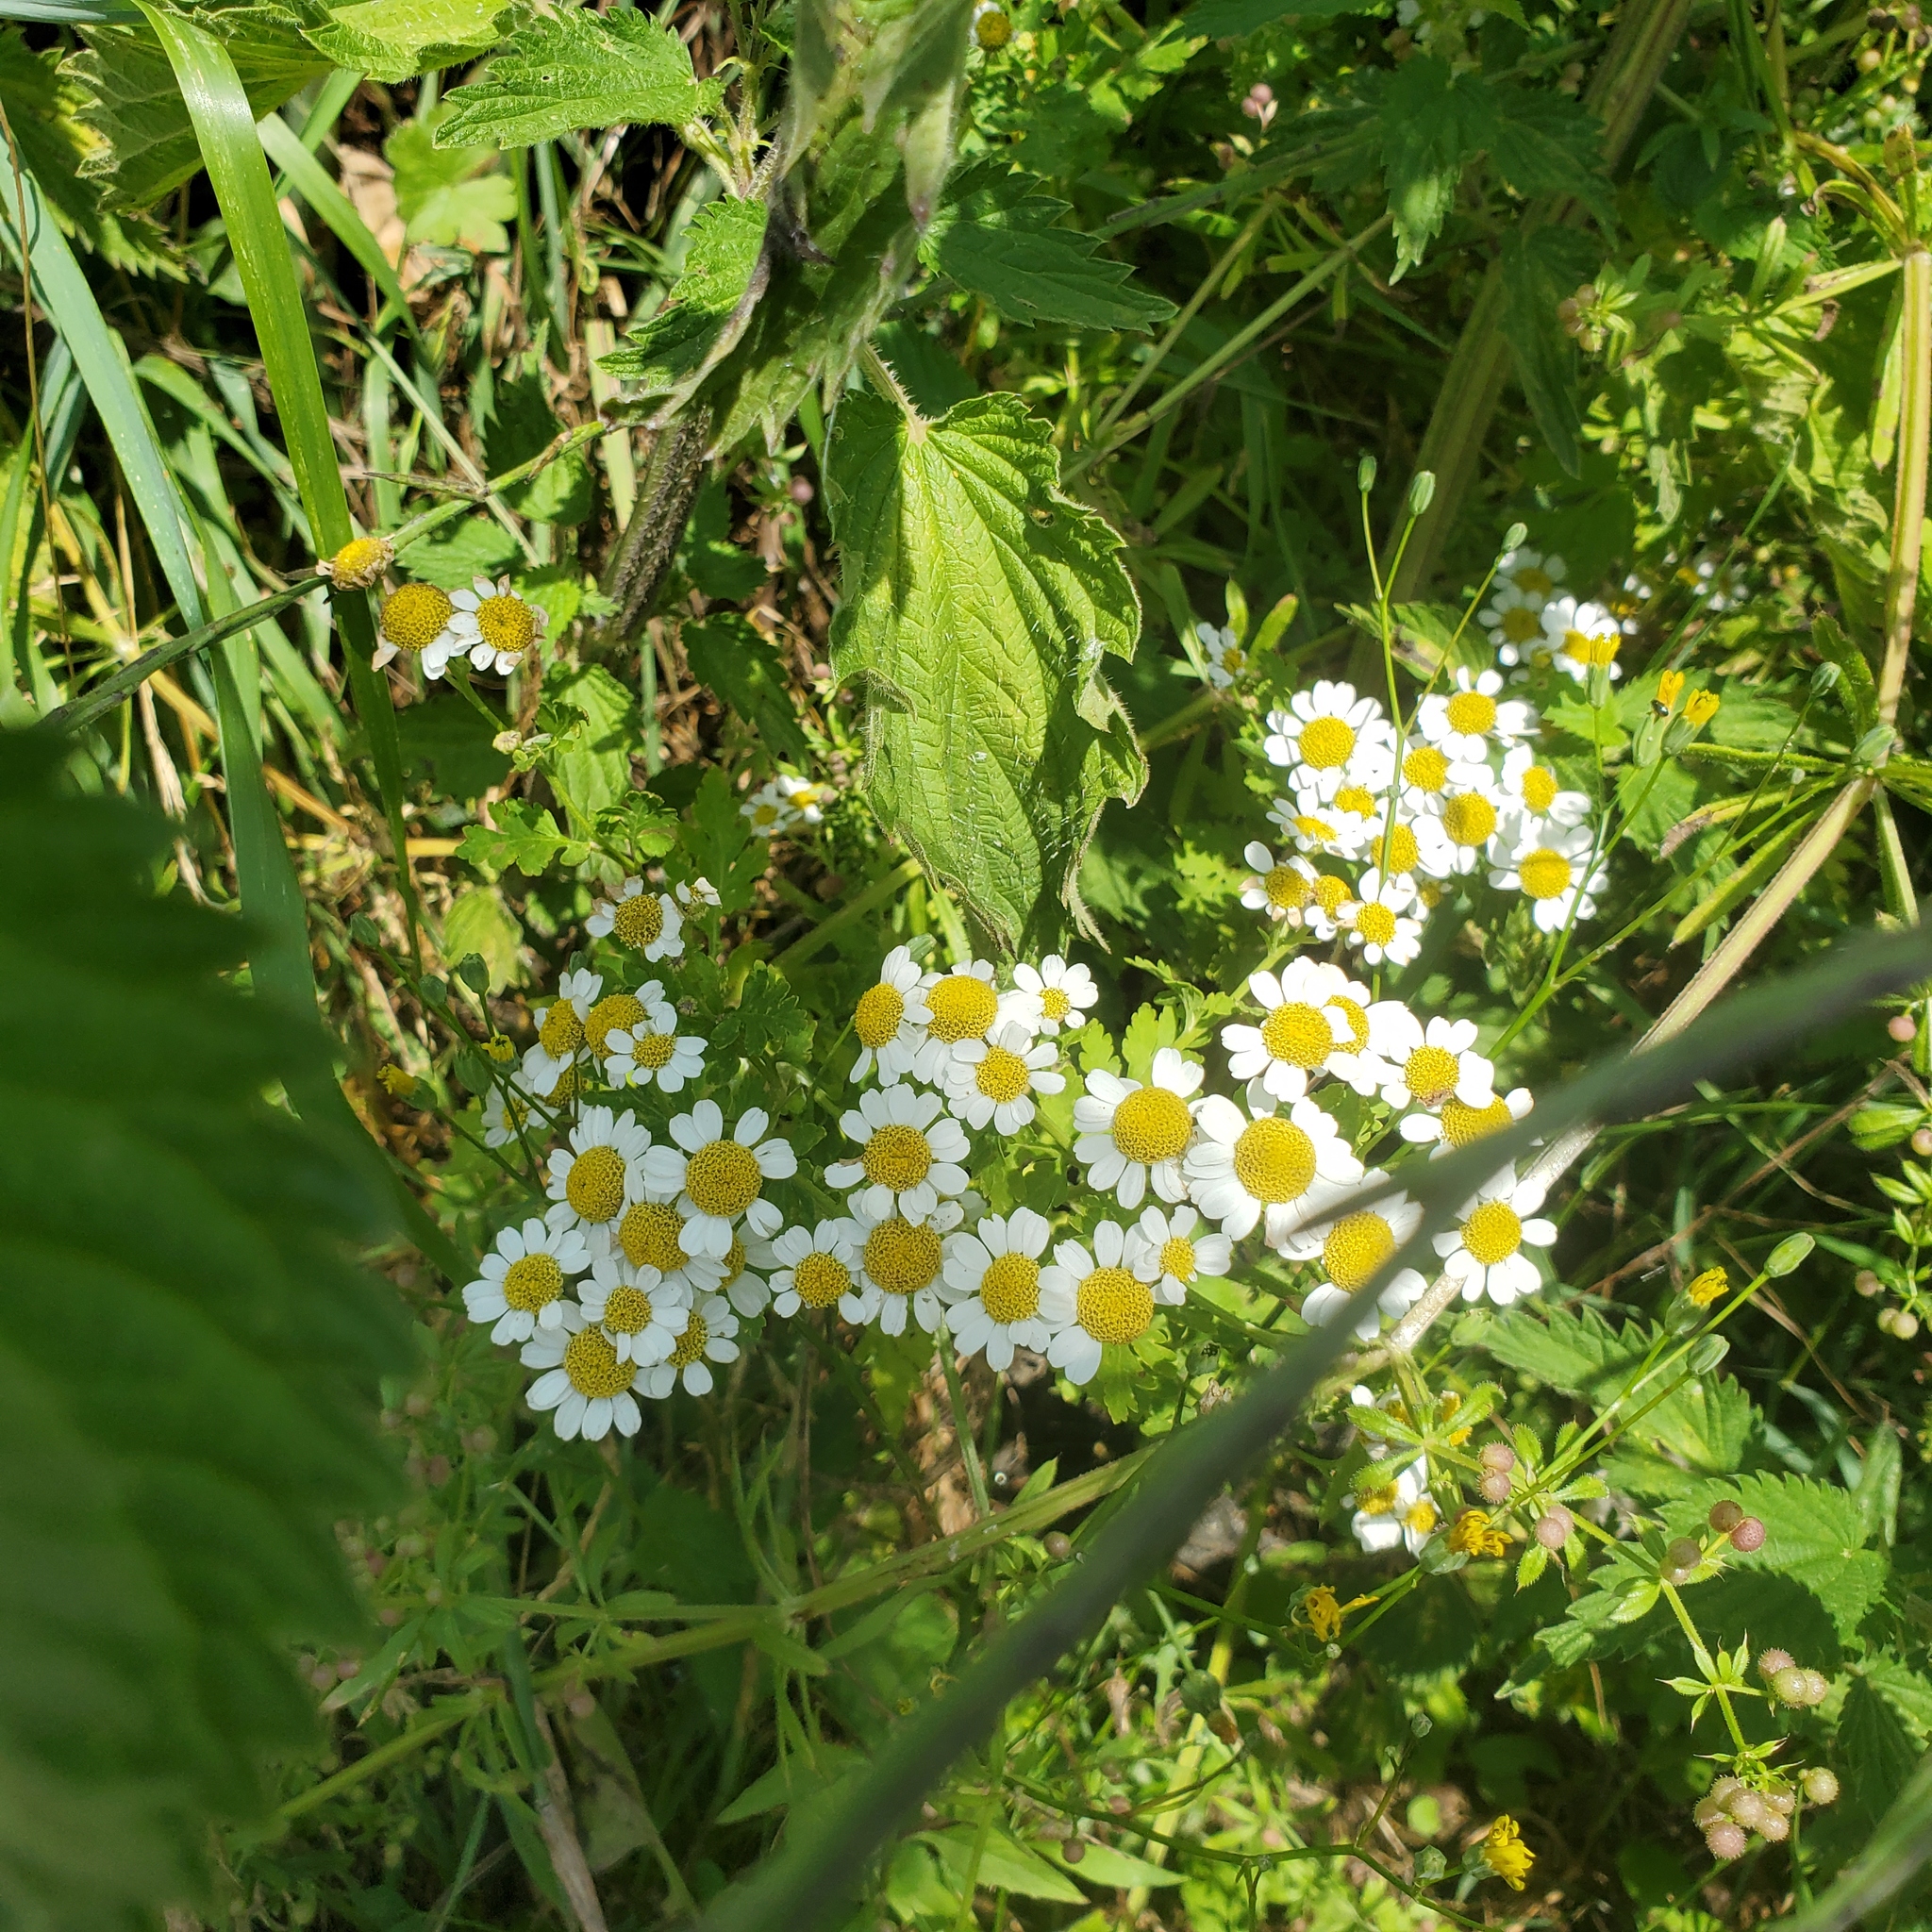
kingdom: Plantae
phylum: Tracheophyta
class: Magnoliopsida
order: Asterales
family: Asteraceae
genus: Tanacetum
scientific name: Tanacetum parthenium
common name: Feverfew
